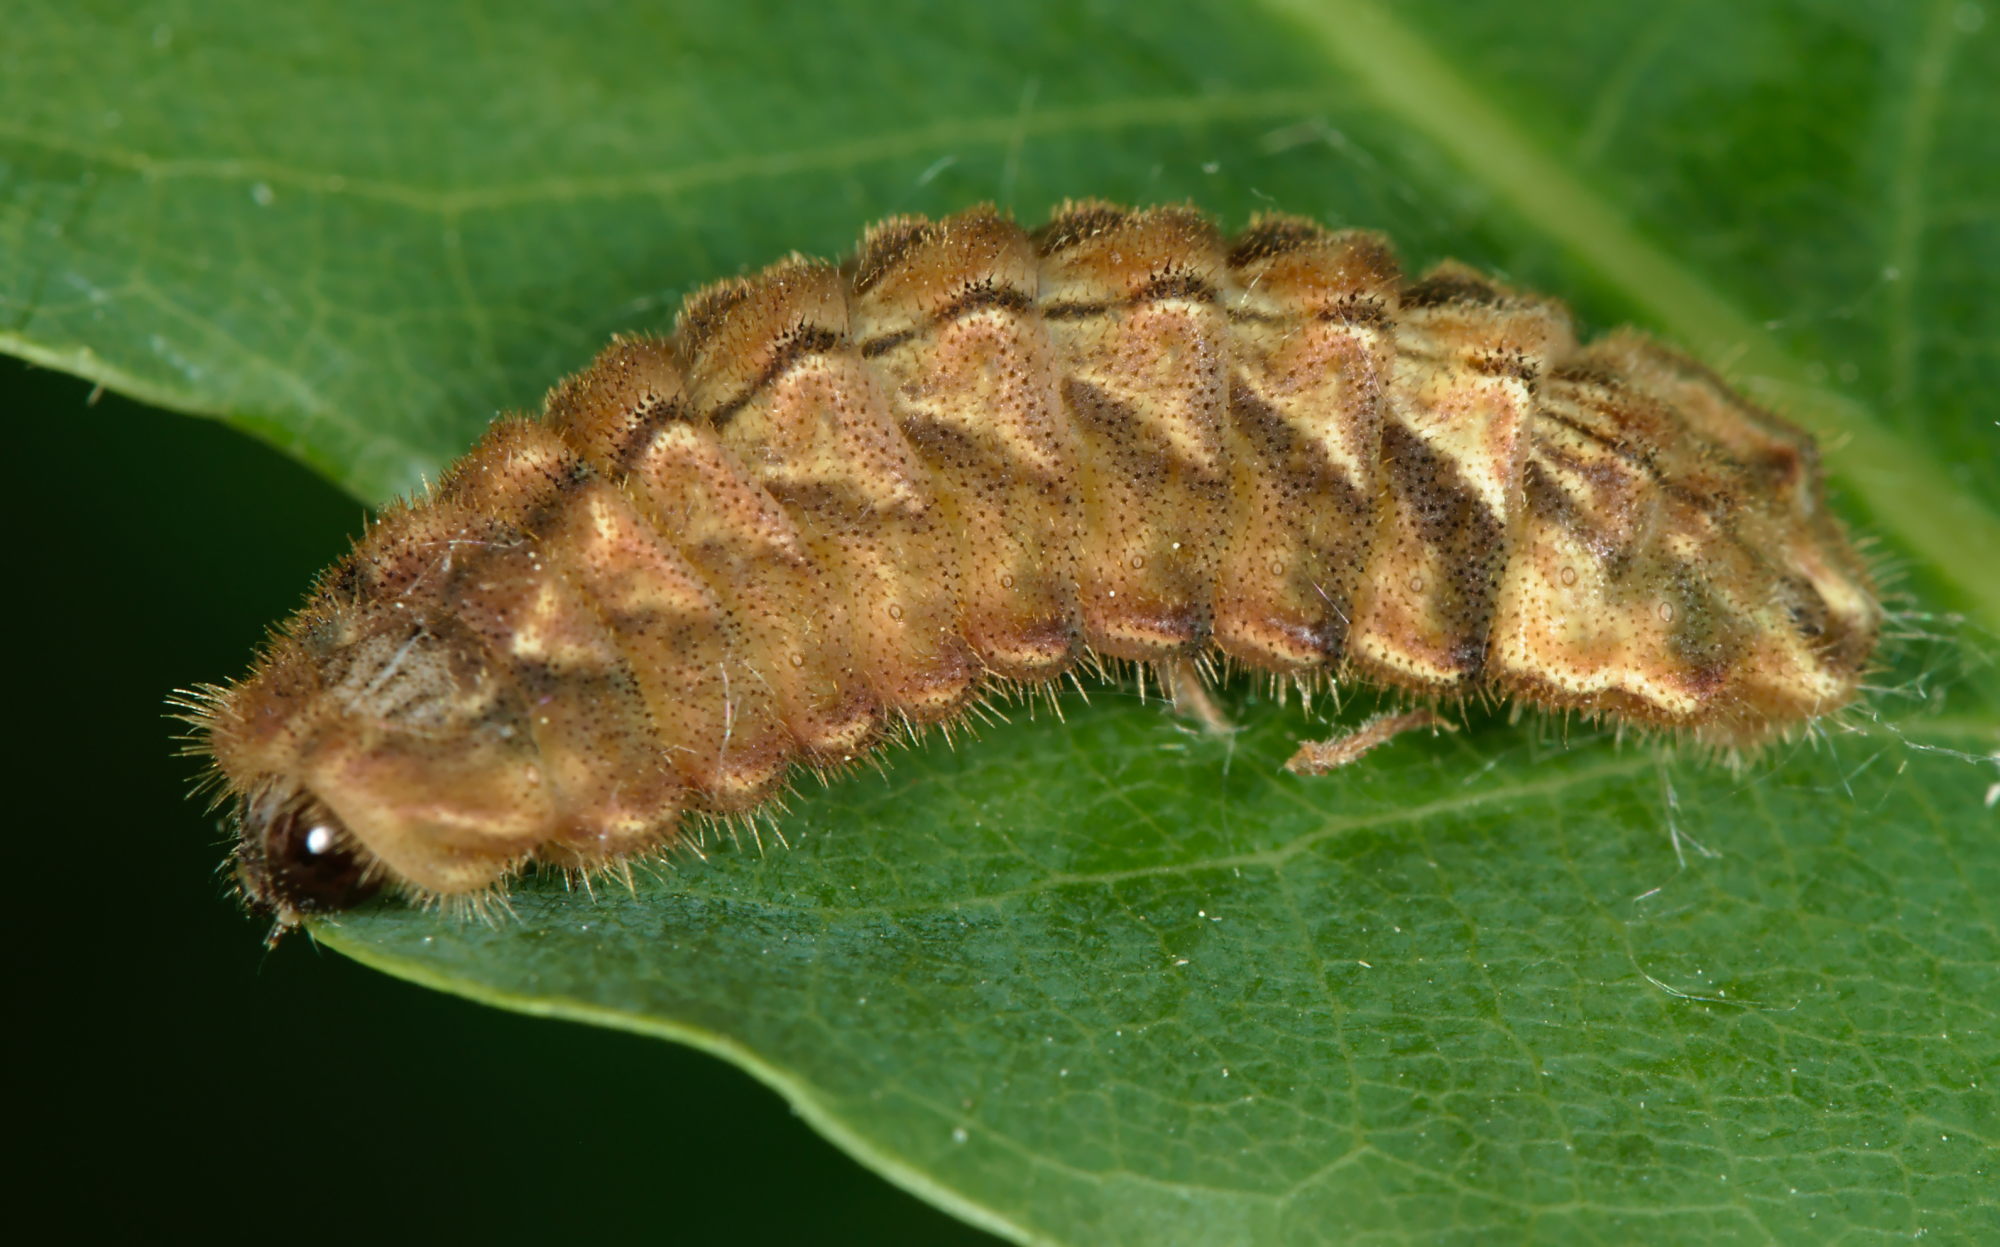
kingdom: Animalia
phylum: Arthropoda
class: Insecta
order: Lepidoptera
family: Lycaenidae
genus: Quercusia
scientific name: Quercusia quercus
